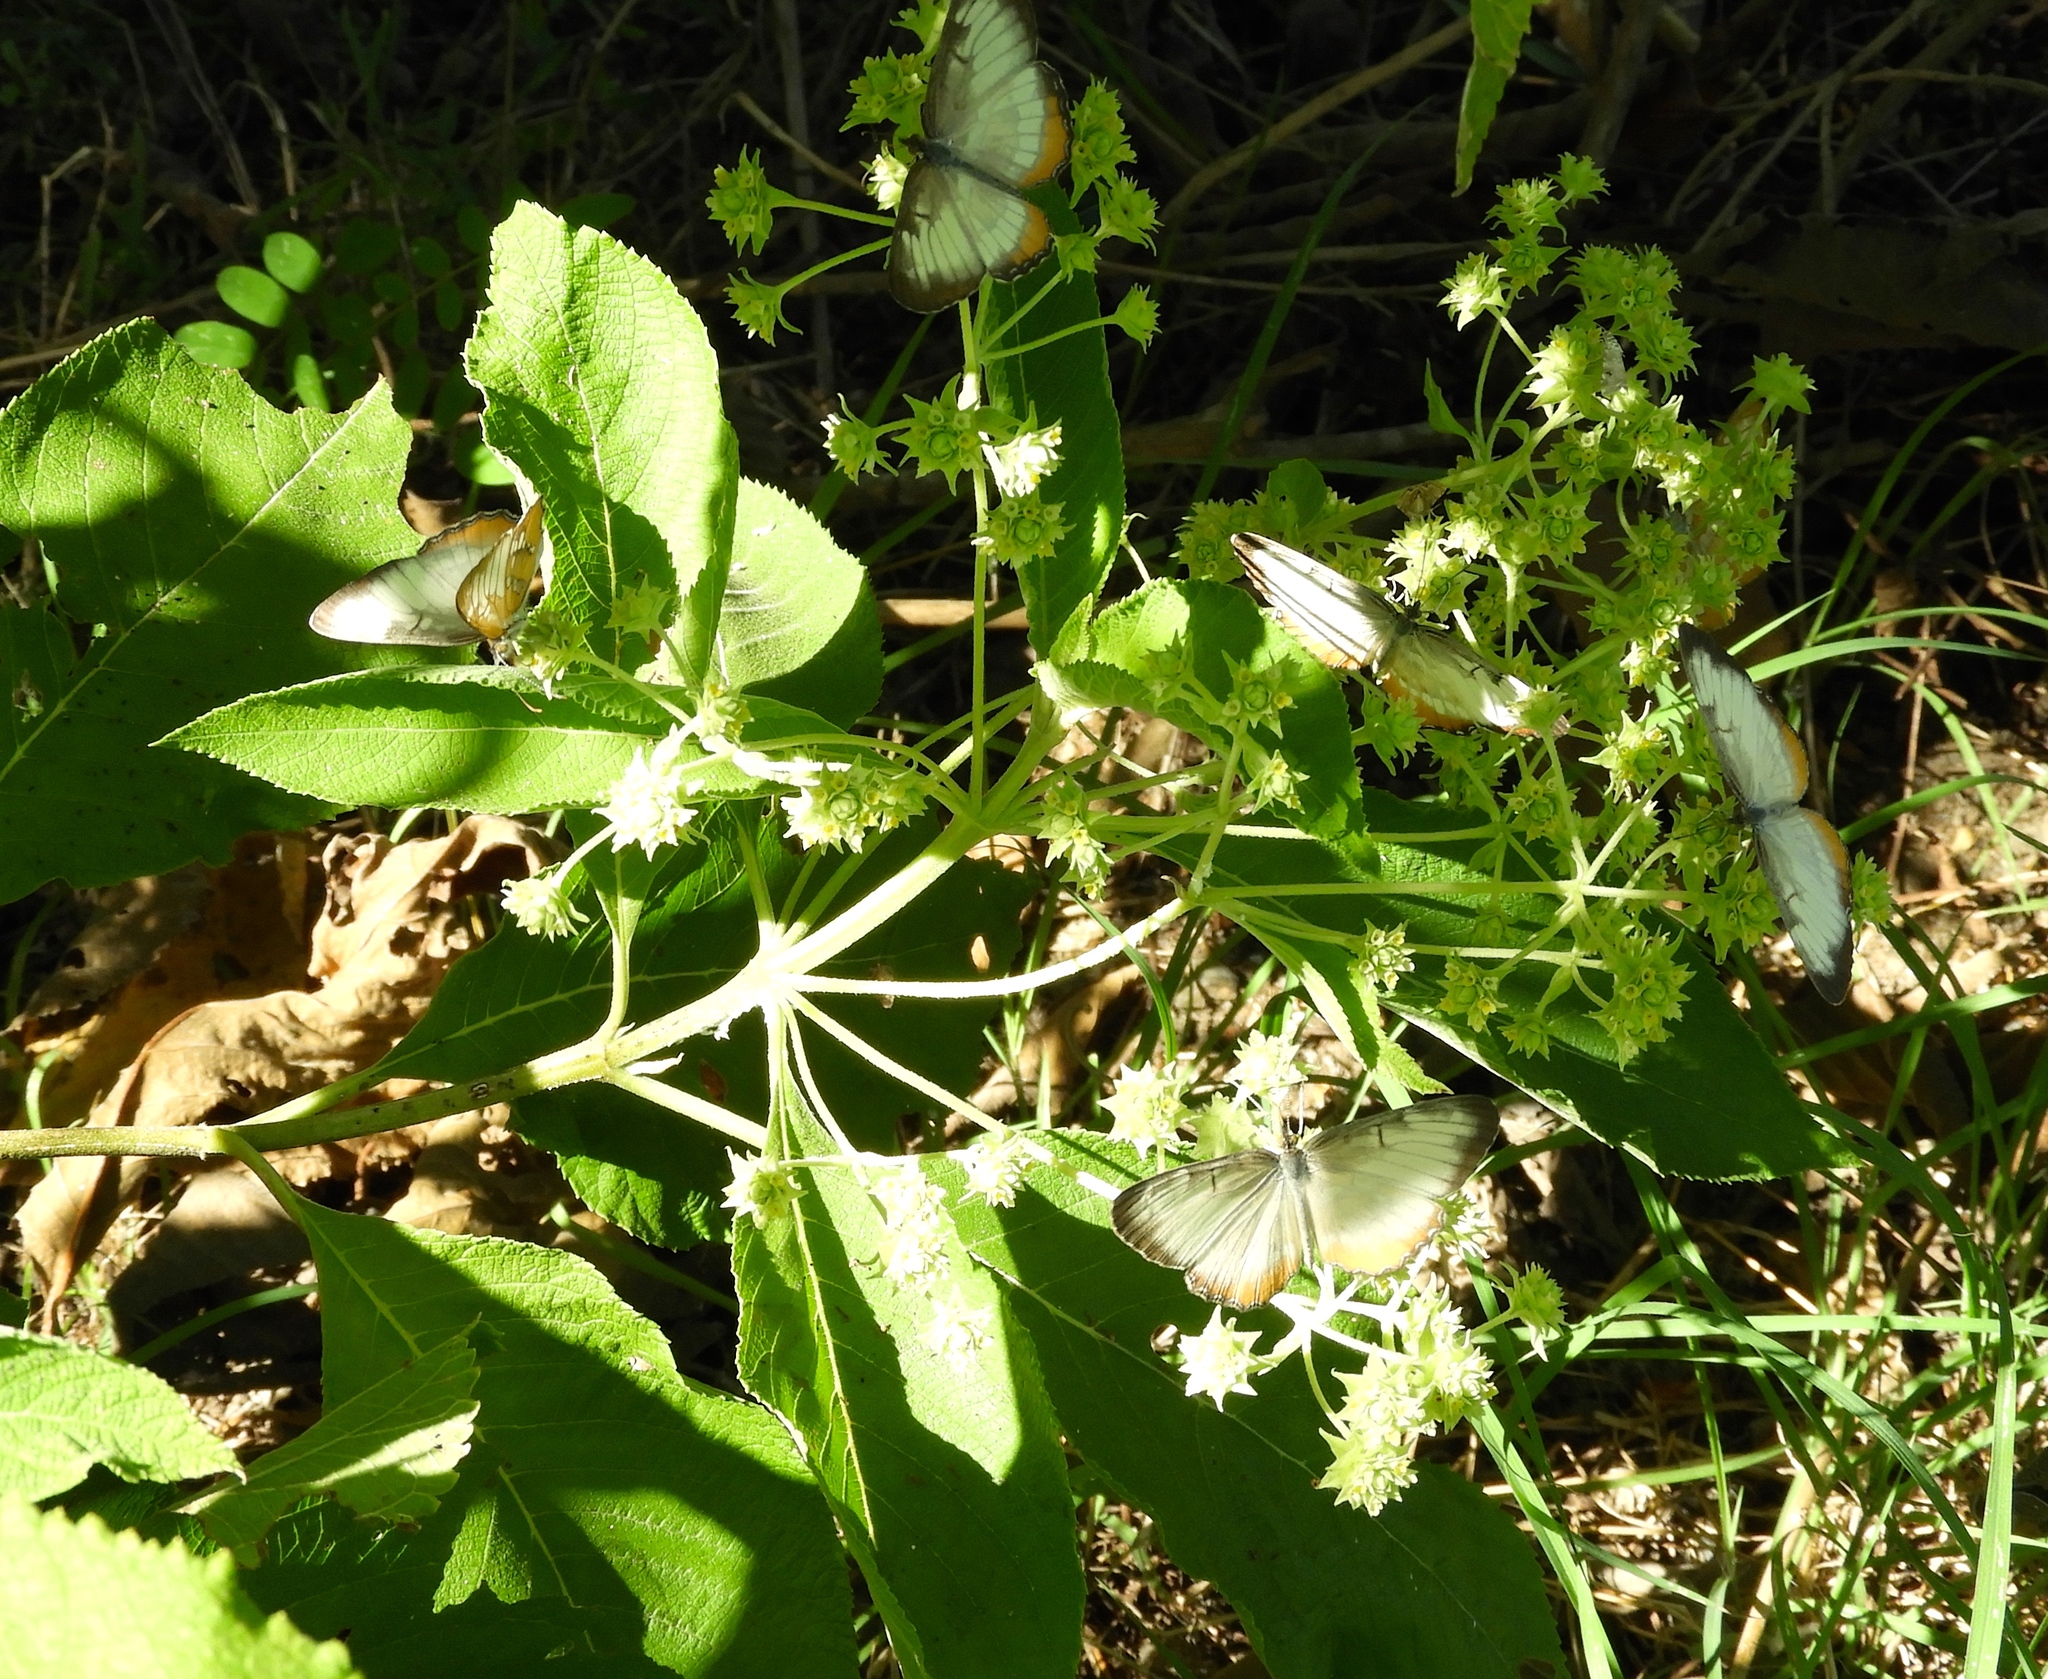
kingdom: Animalia
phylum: Arthropoda
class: Insecta
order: Lepidoptera
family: Nymphalidae
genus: Mestra
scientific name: Mestra amymone
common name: Common mestra
